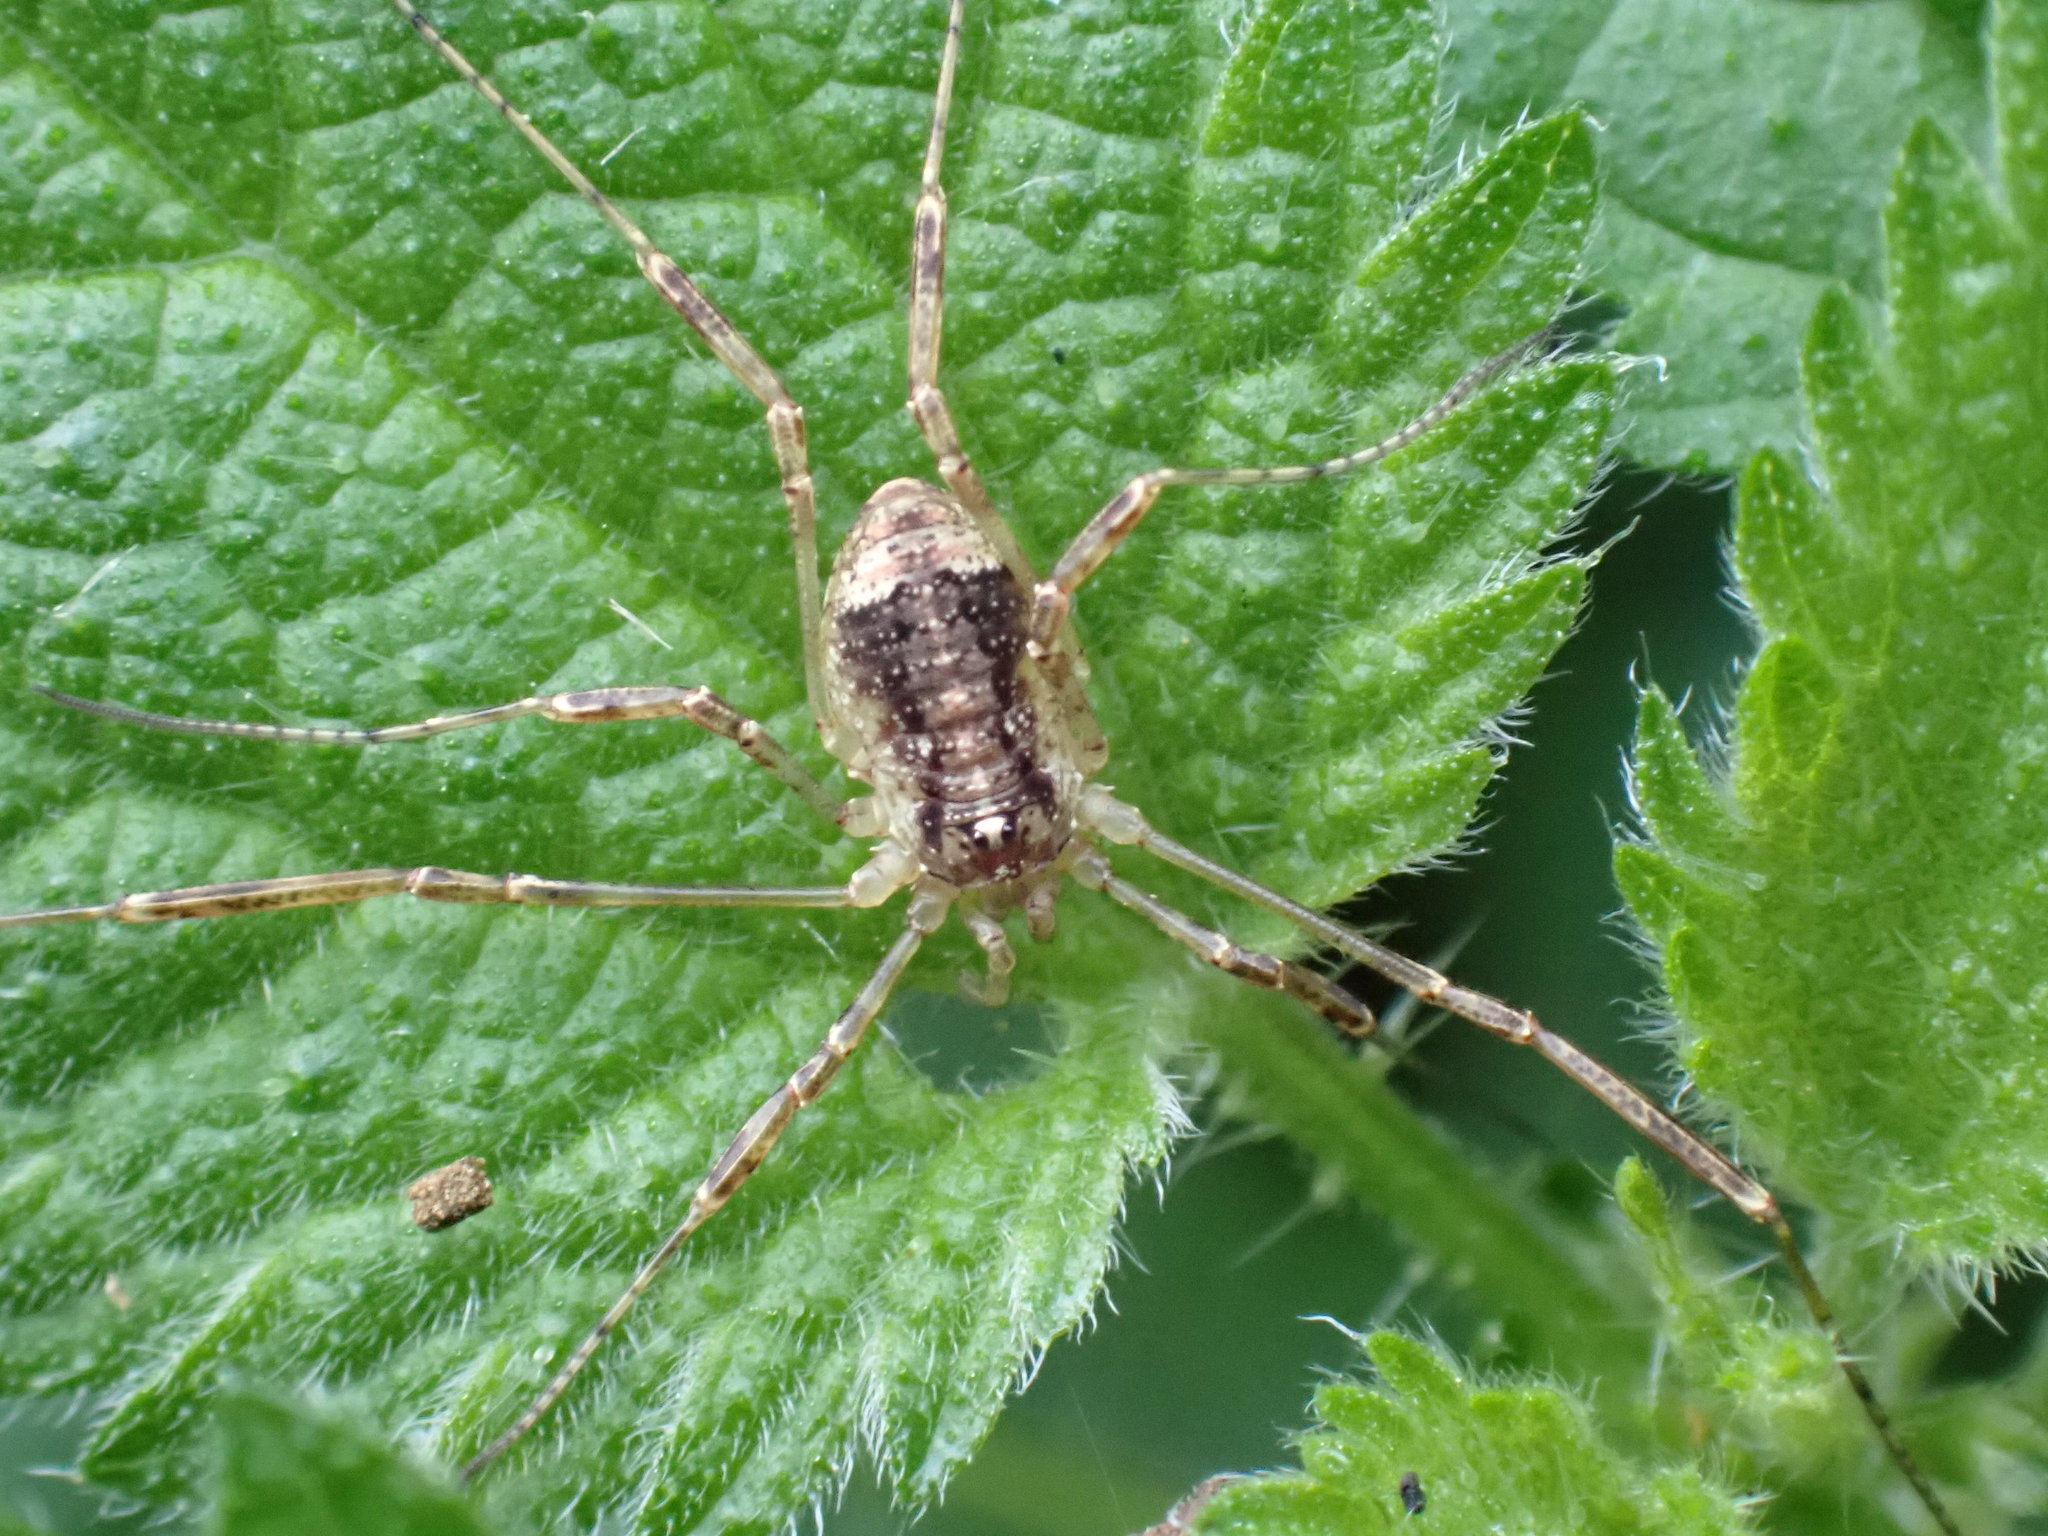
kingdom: Animalia
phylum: Arthropoda
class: Arachnida
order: Opiliones
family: Phalangiidae
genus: Paroligolophus
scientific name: Paroligolophus agrestis
